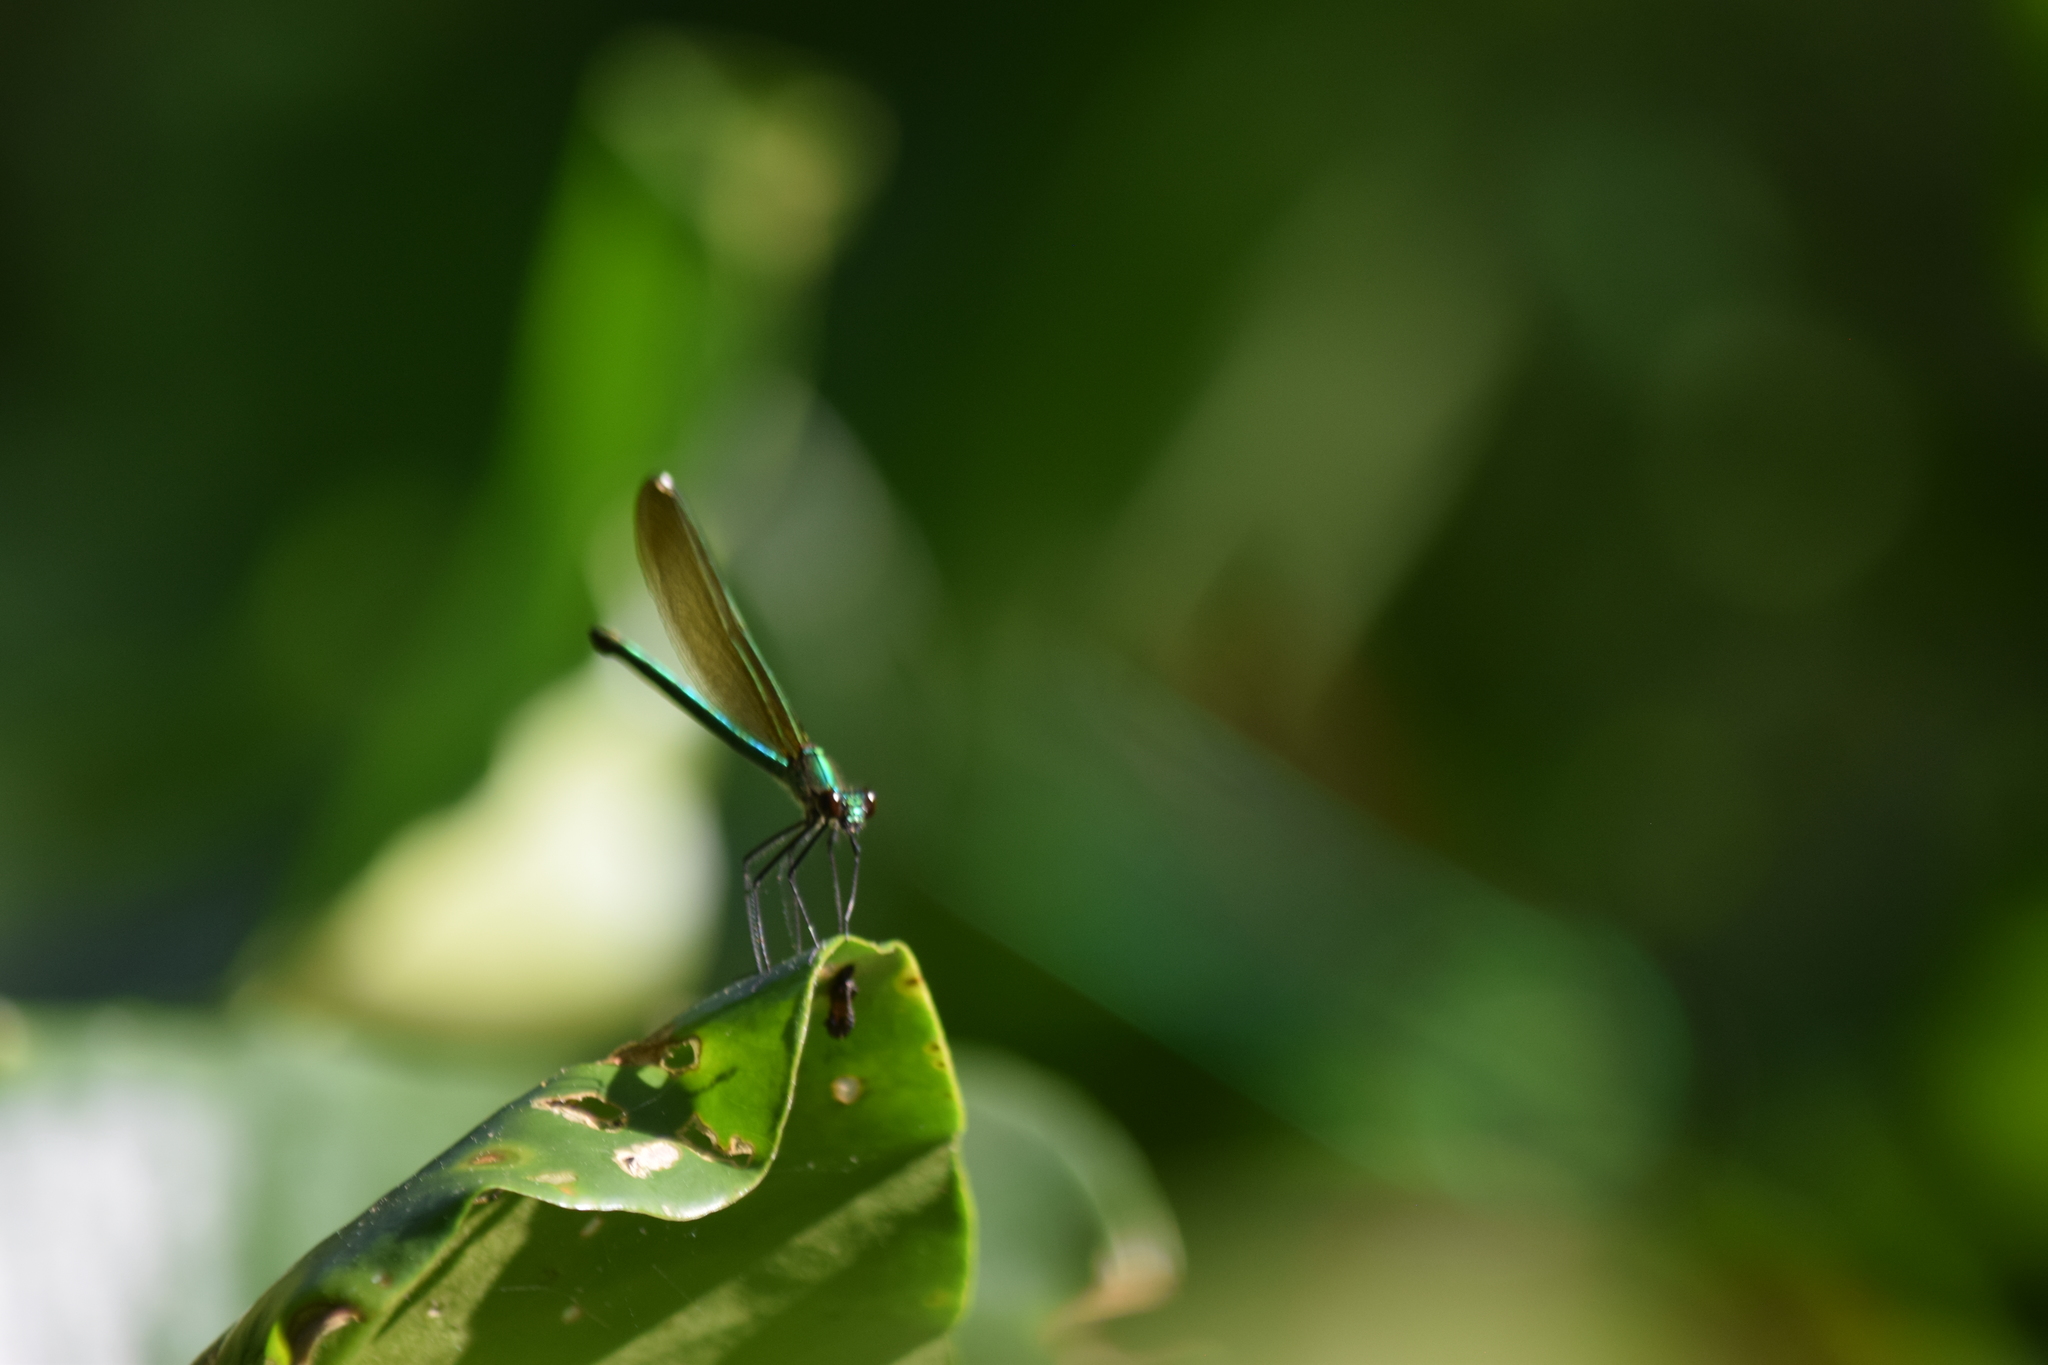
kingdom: Animalia
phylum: Arthropoda
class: Insecta
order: Odonata
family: Calopterygidae
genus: Calopteryx
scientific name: Calopteryx dimidiata
